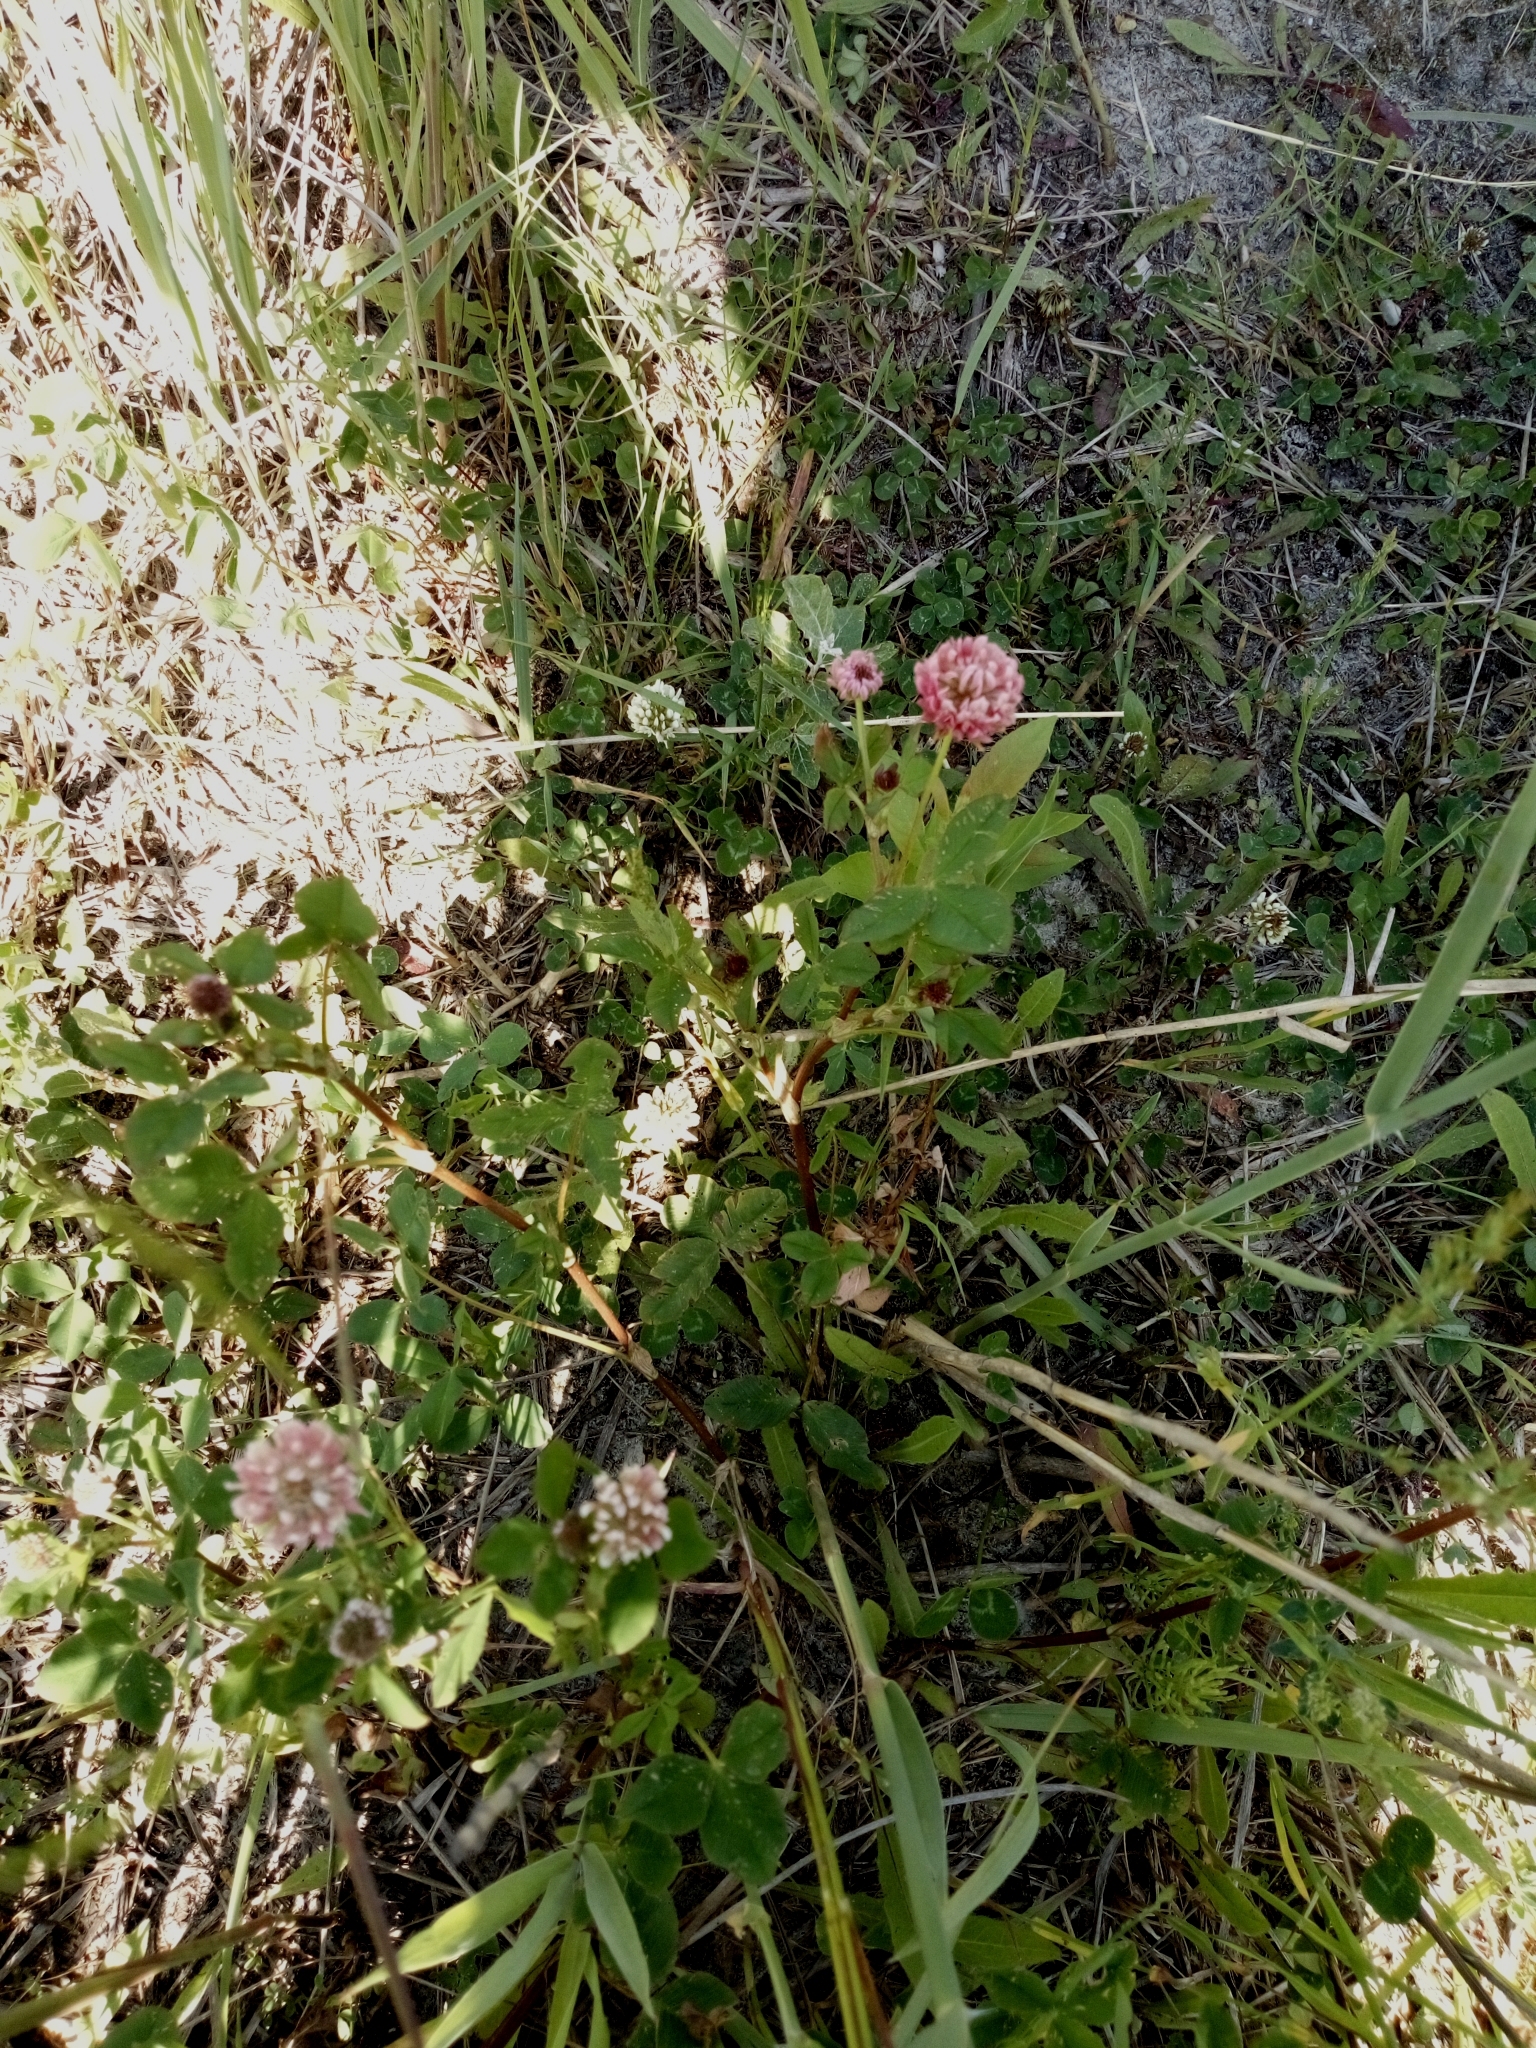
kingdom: Plantae
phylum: Tracheophyta
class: Magnoliopsida
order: Fabales
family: Fabaceae
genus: Trifolium
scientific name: Trifolium hybridum
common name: Alsike clover
